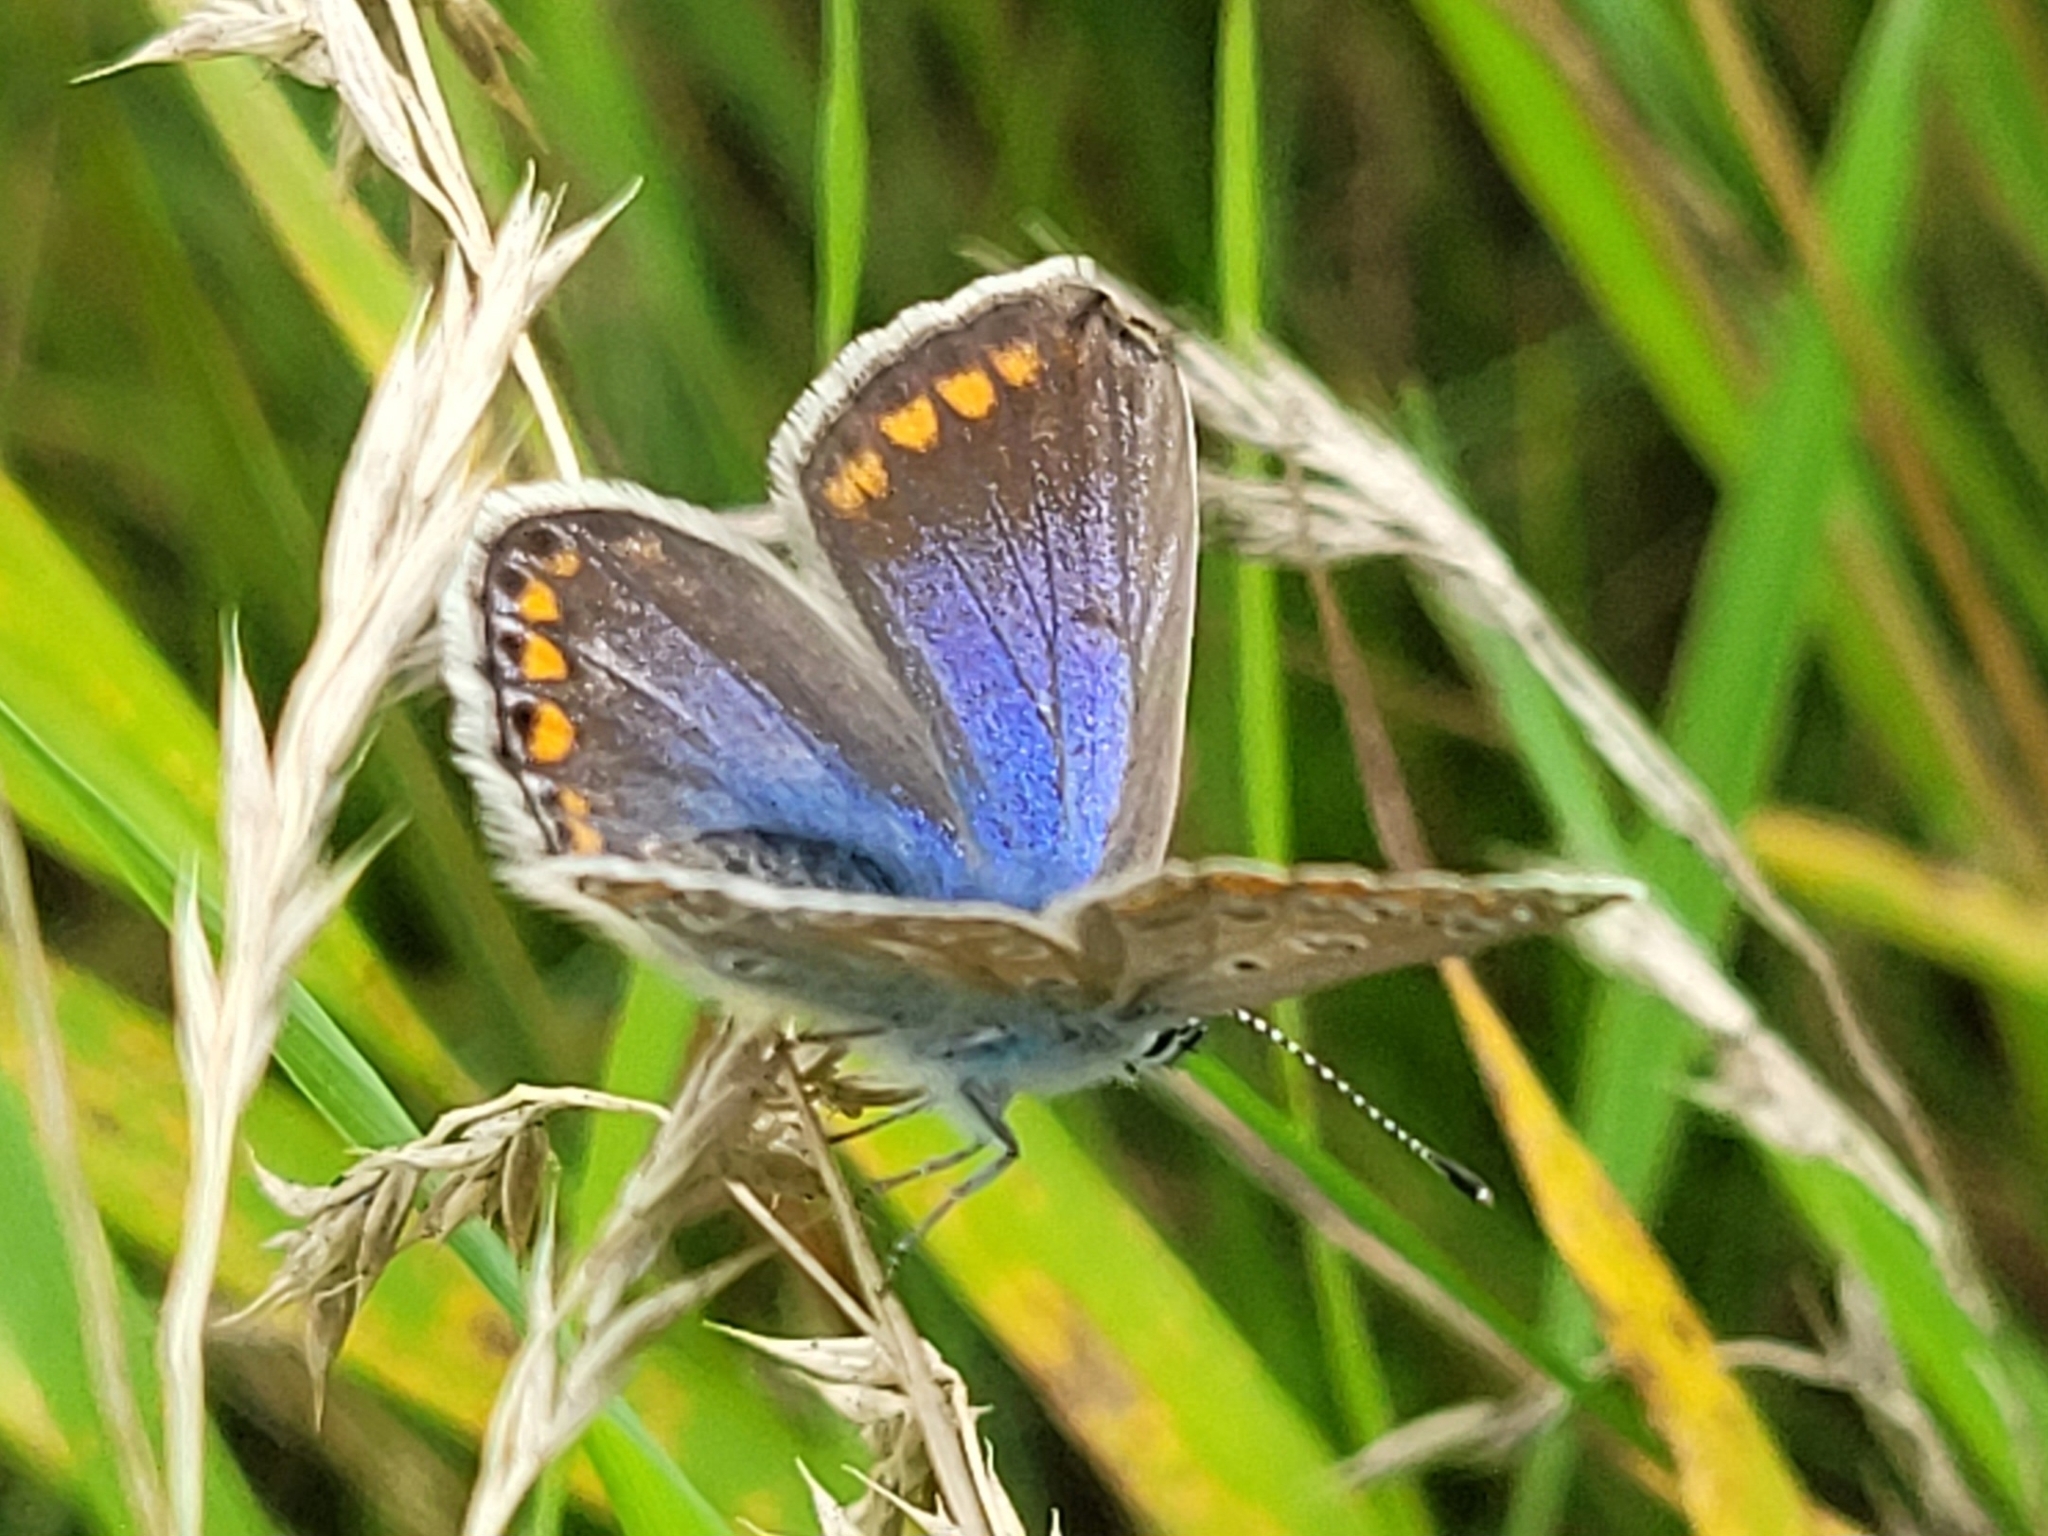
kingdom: Animalia
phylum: Arthropoda
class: Insecta
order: Lepidoptera
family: Lycaenidae
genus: Polyommatus
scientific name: Polyommatus icarus
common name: Common blue
